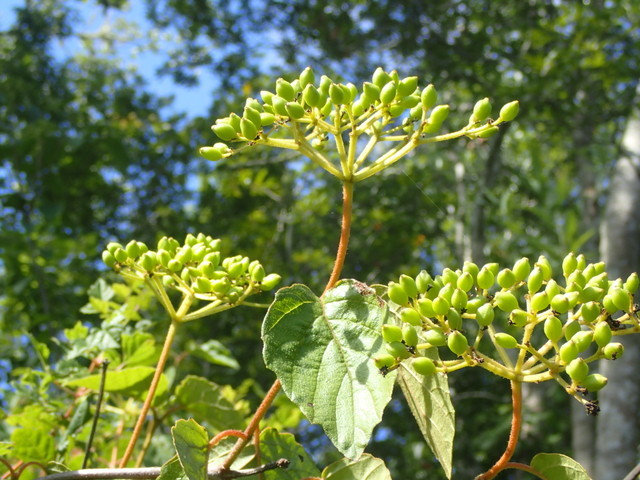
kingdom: Plantae
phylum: Tracheophyta
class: Magnoliopsida
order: Dipsacales
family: Viburnaceae
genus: Viburnum
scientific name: Viburnum scabrellum
